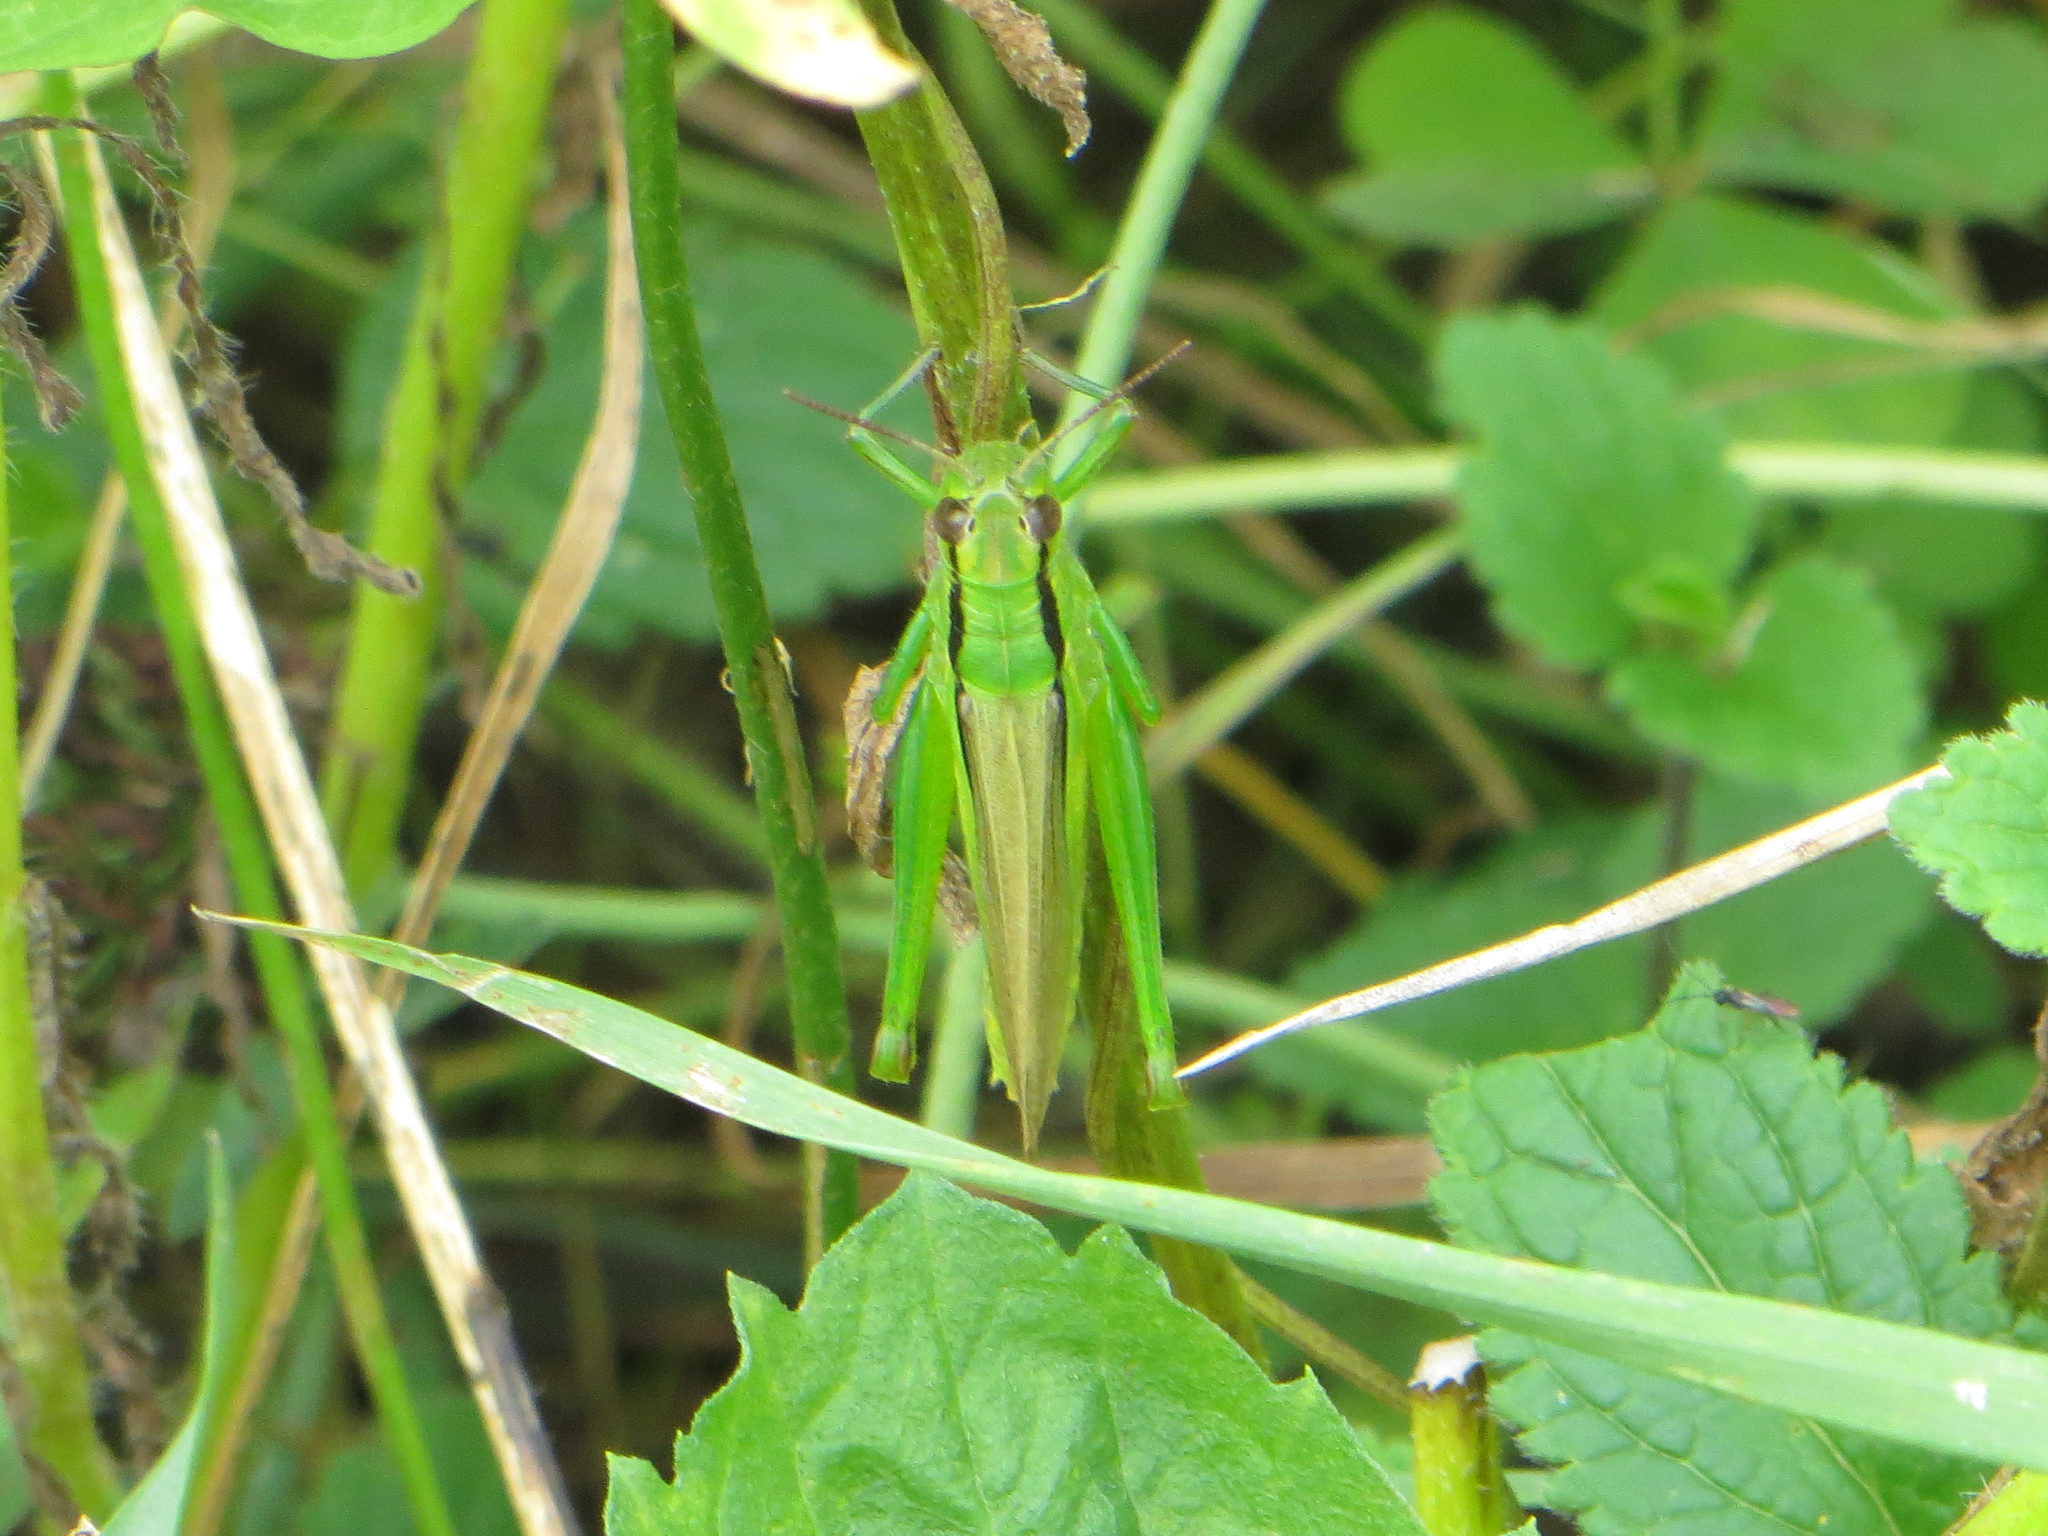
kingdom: Animalia
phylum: Arthropoda
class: Insecta
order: Orthoptera
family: Acrididae
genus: Mecostethus
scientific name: Mecostethus parapleurus
